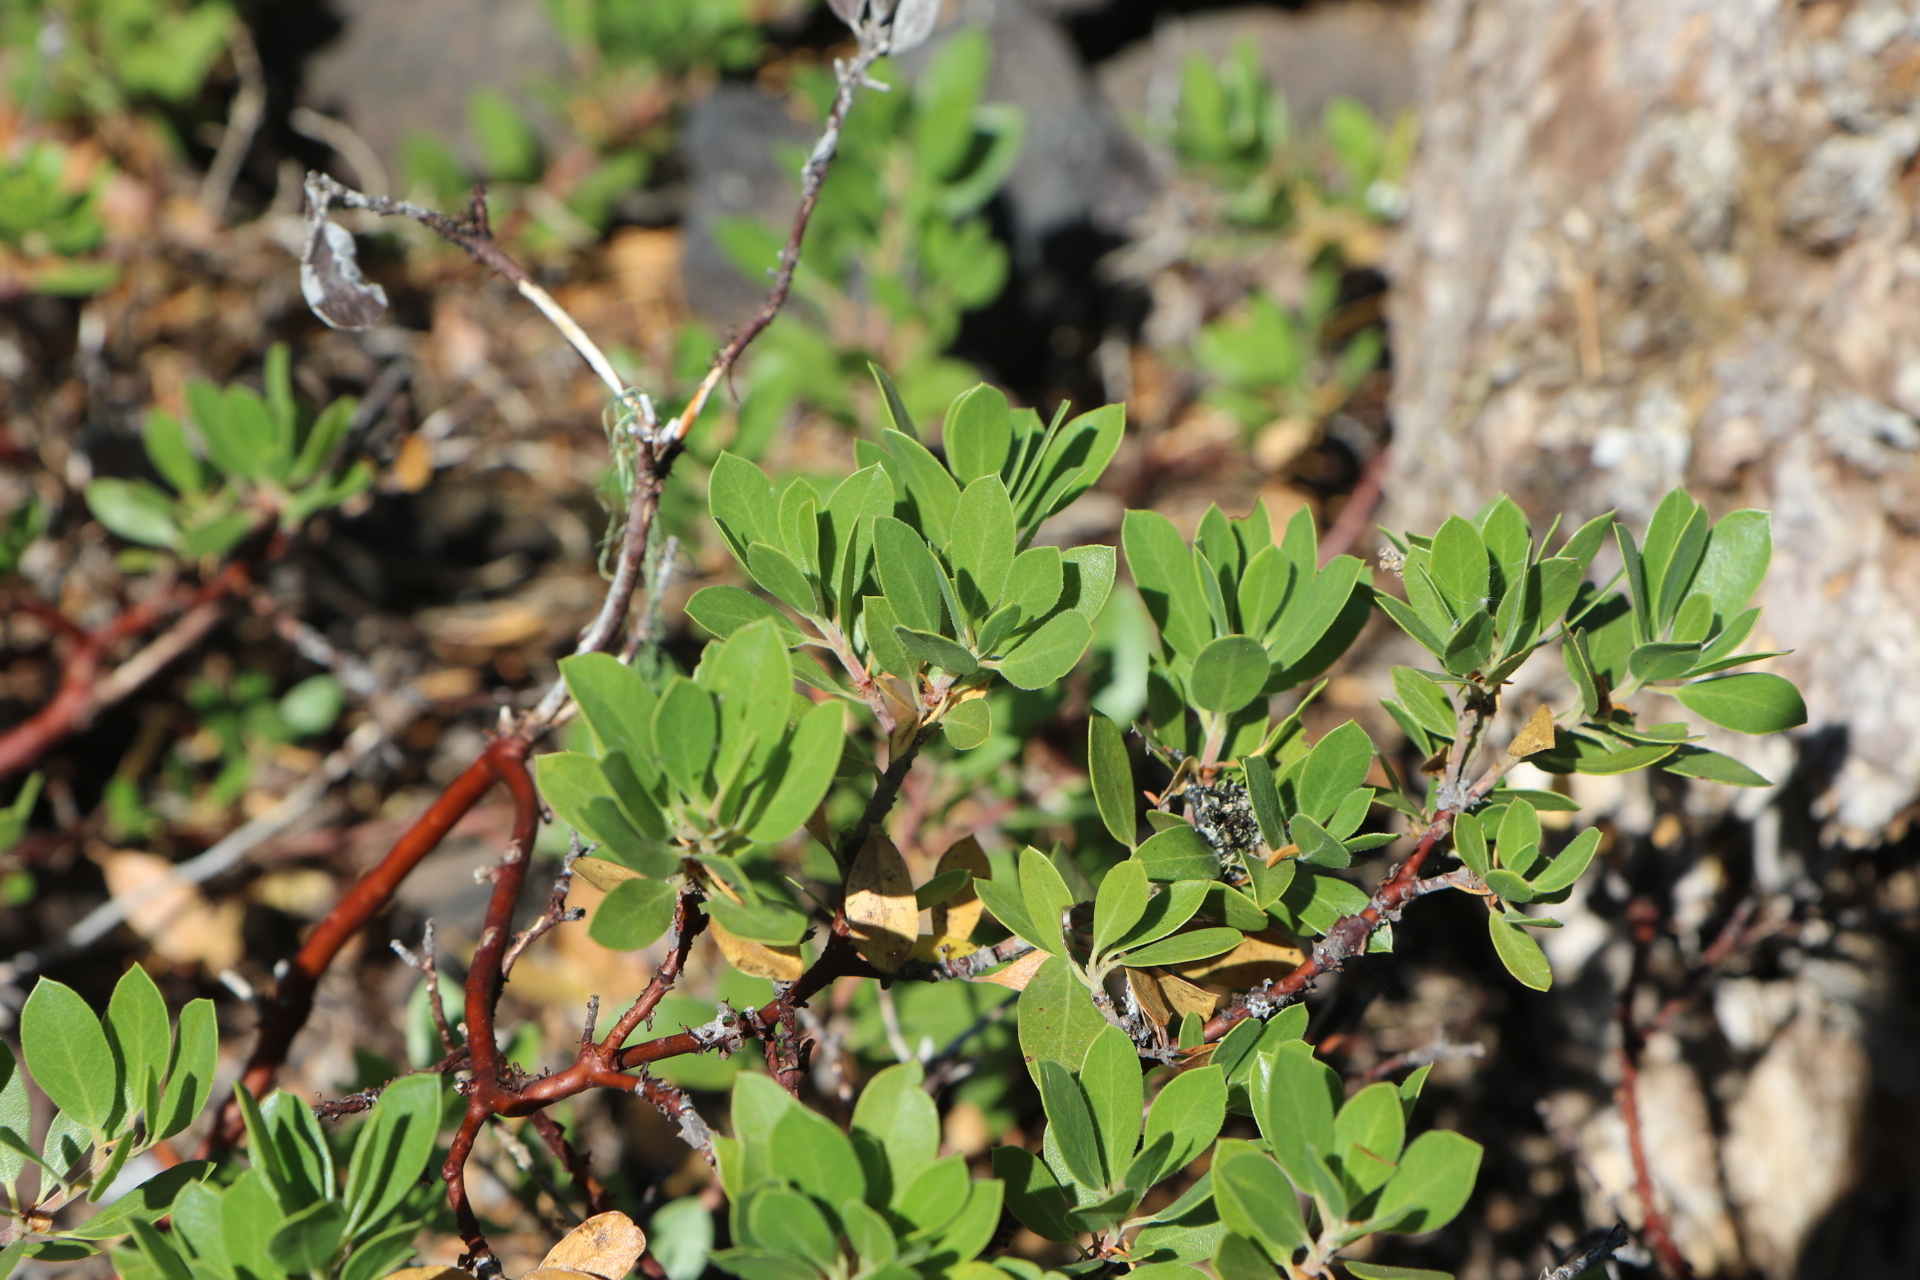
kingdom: Plantae
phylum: Tracheophyta
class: Magnoliopsida
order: Ericales
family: Ericaceae
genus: Arctostaphylos
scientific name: Arctostaphylos nevadensis
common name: Pinemat manzanita
